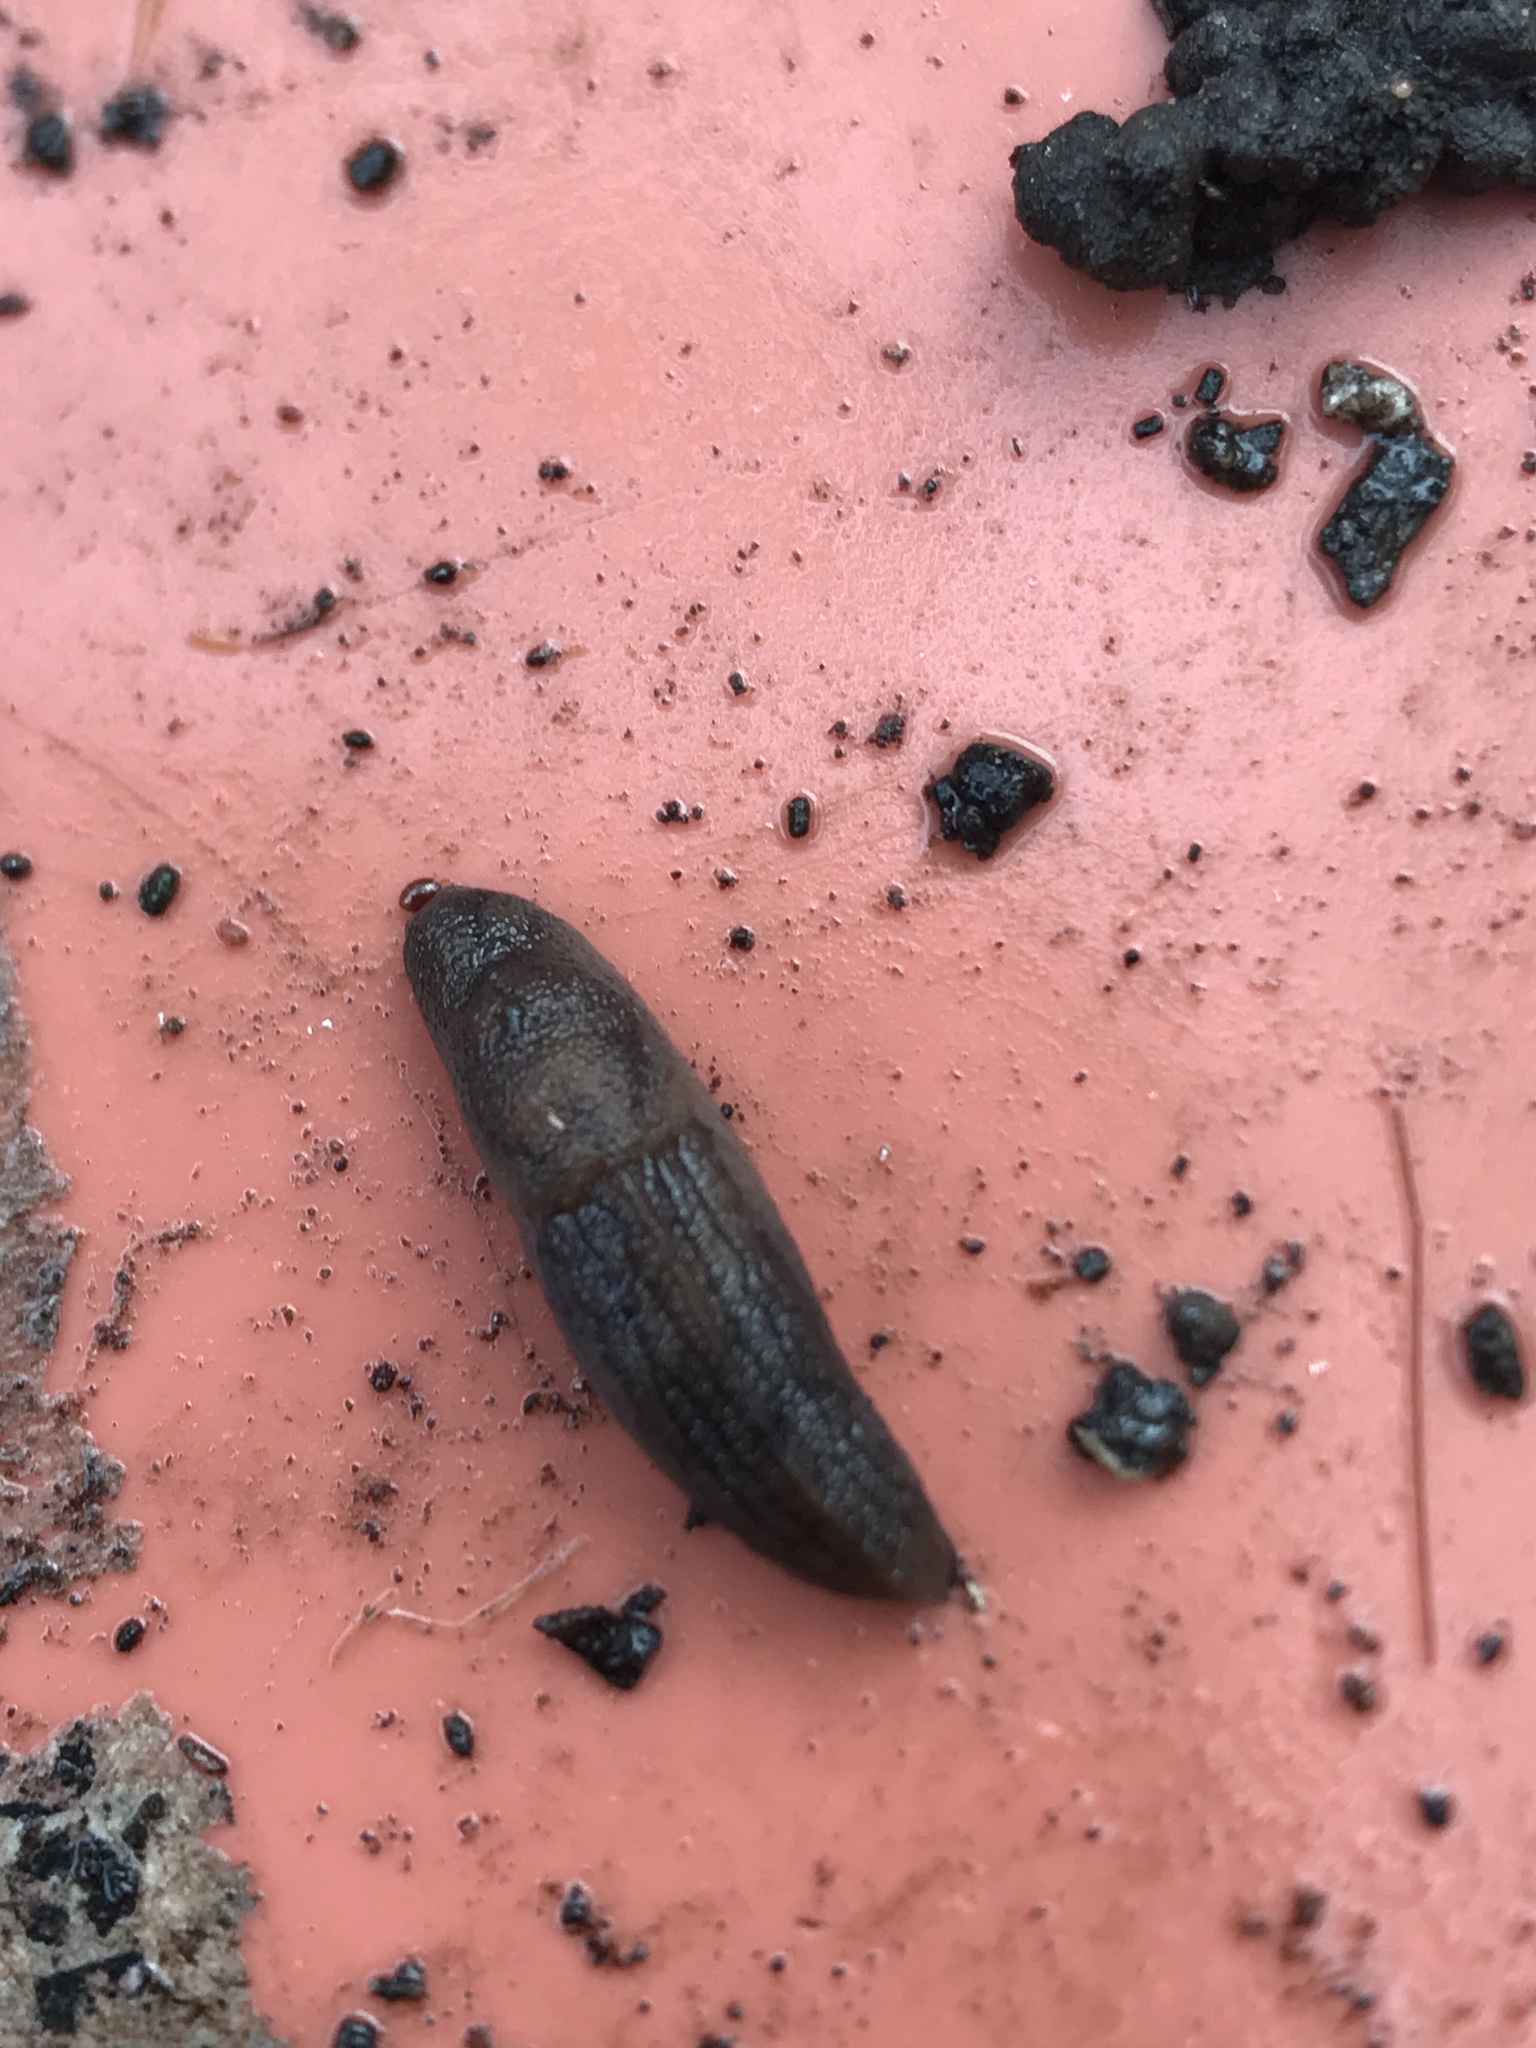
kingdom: Animalia
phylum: Mollusca
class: Gastropoda
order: Stylommatophora
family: Milacidae
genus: Milax
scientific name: Milax gagates
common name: Greenhouse slug
